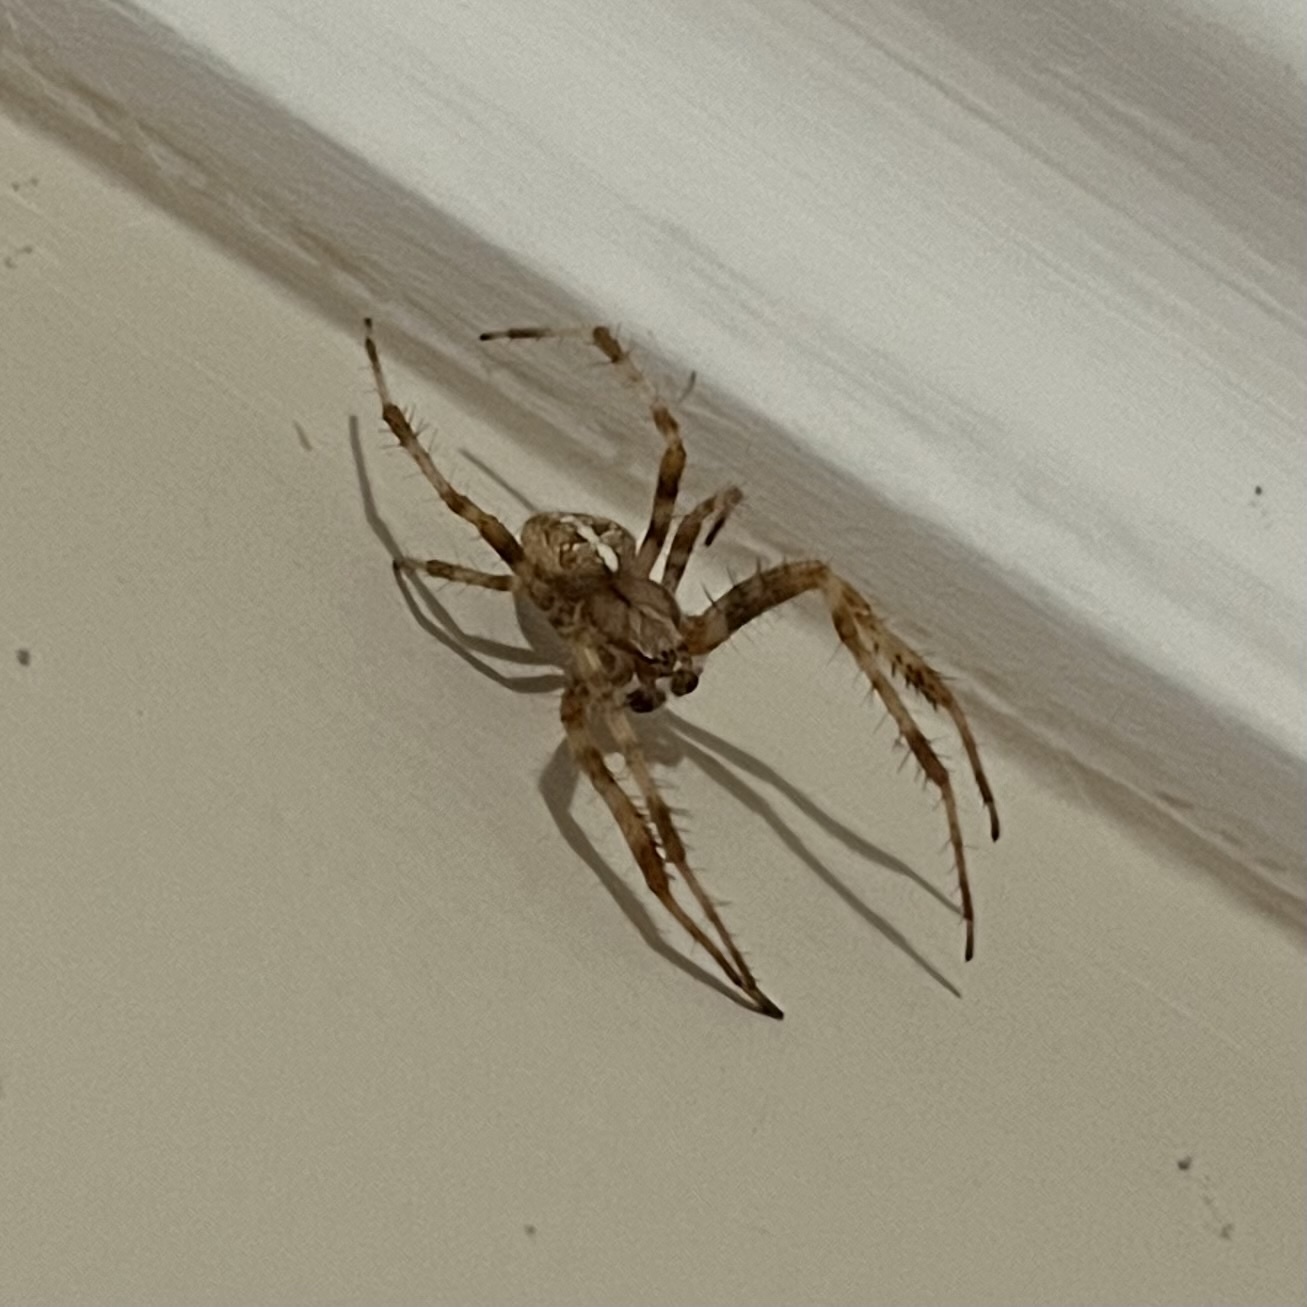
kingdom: Animalia
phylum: Arthropoda
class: Arachnida
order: Araneae
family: Araneidae
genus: Araneus
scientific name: Araneus diadematus
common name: Cross orbweaver
